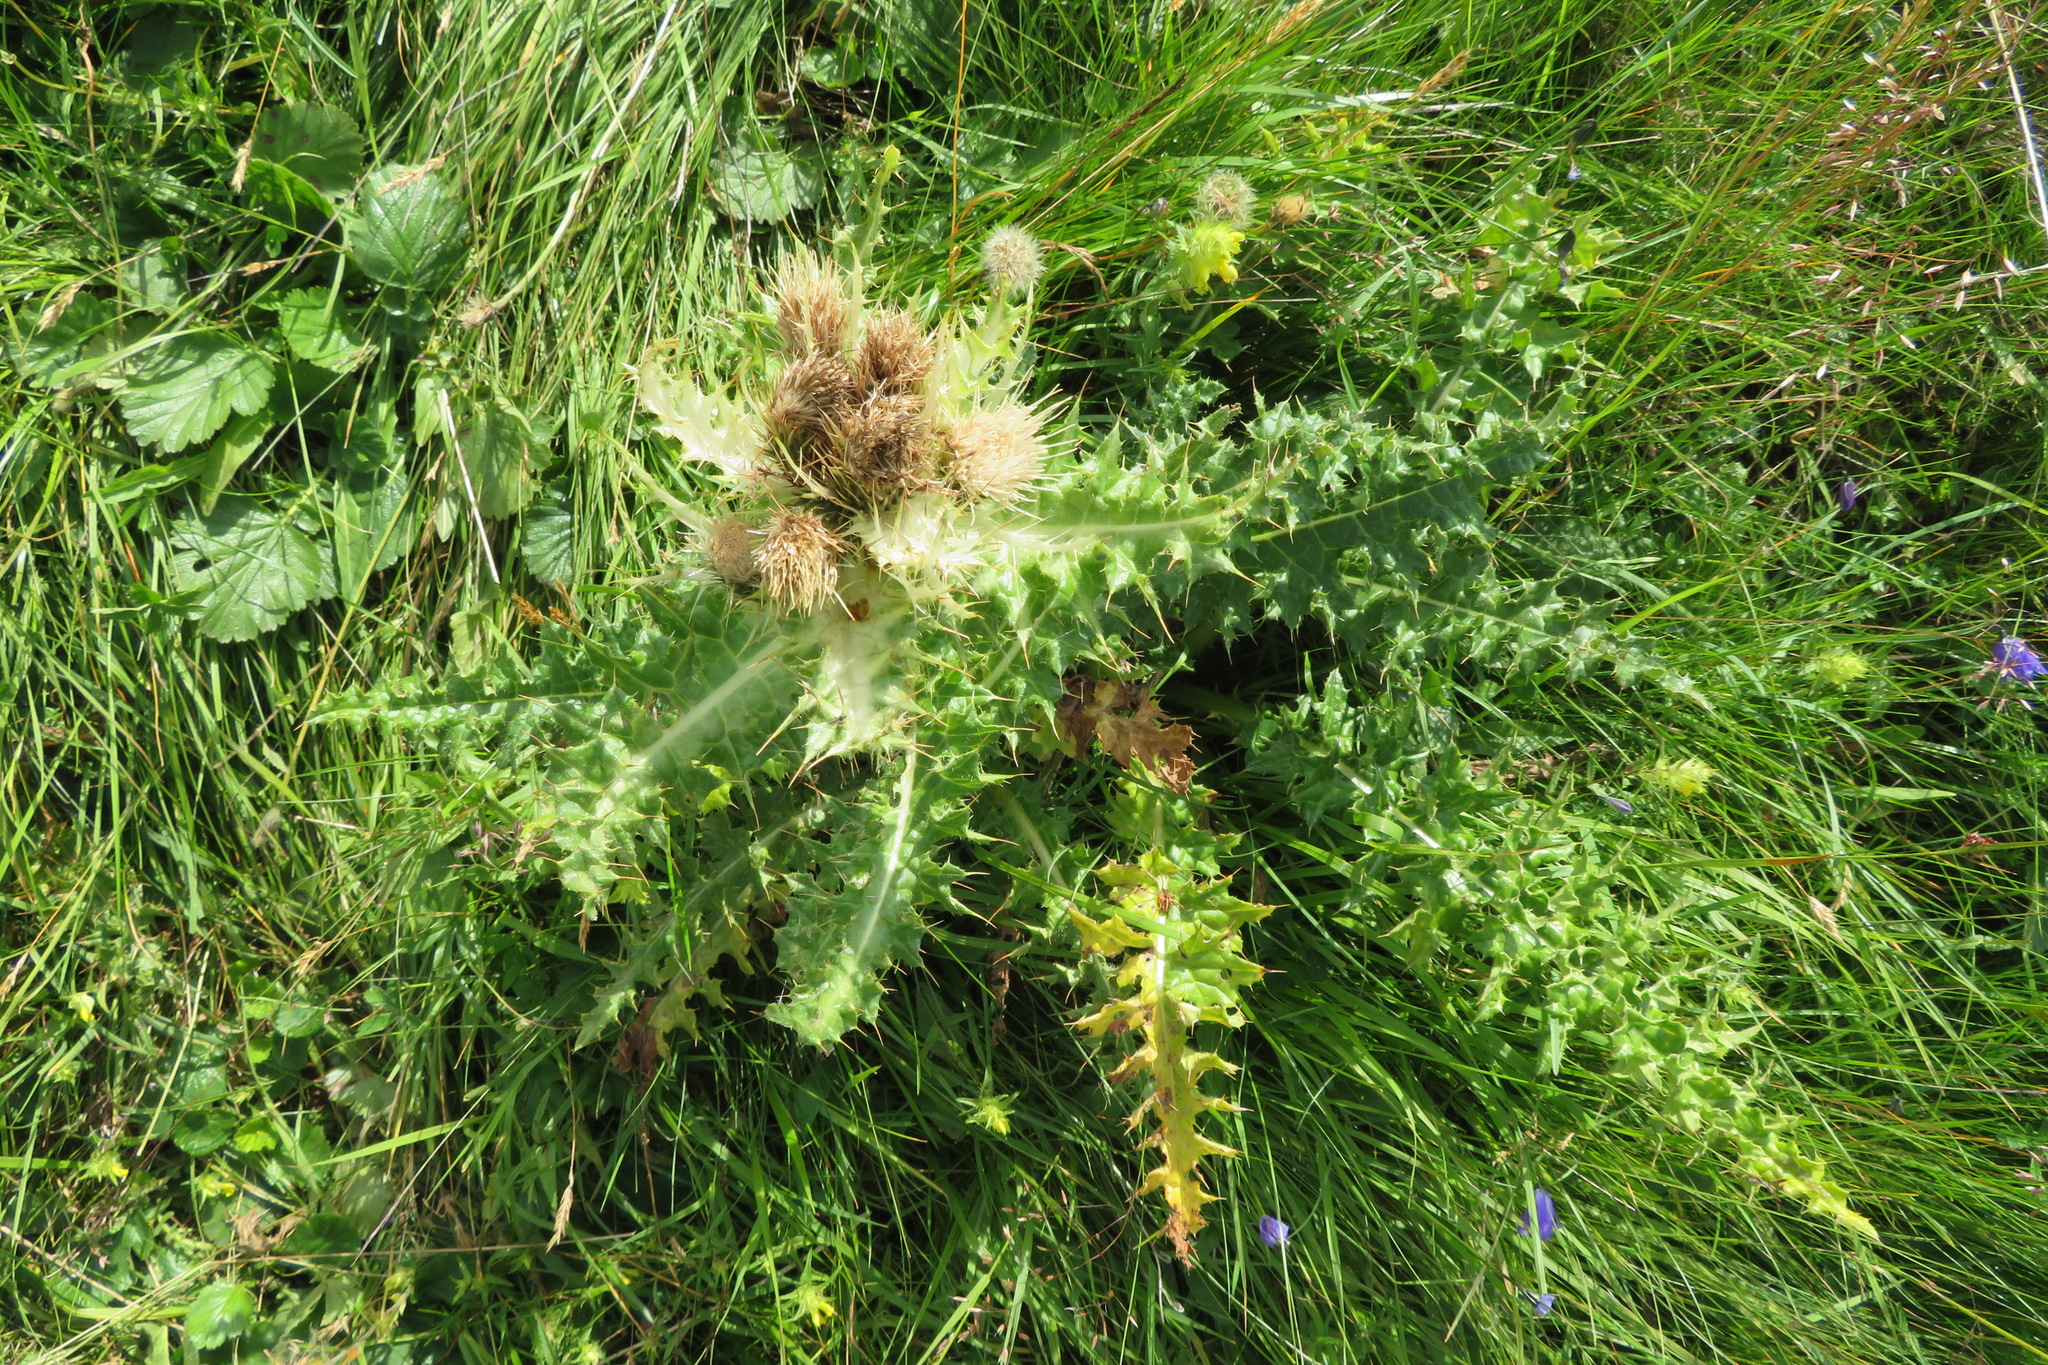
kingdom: Plantae
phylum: Tracheophyta
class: Magnoliopsida
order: Asterales
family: Asteraceae
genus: Cirsium
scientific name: Cirsium spinosissimum
